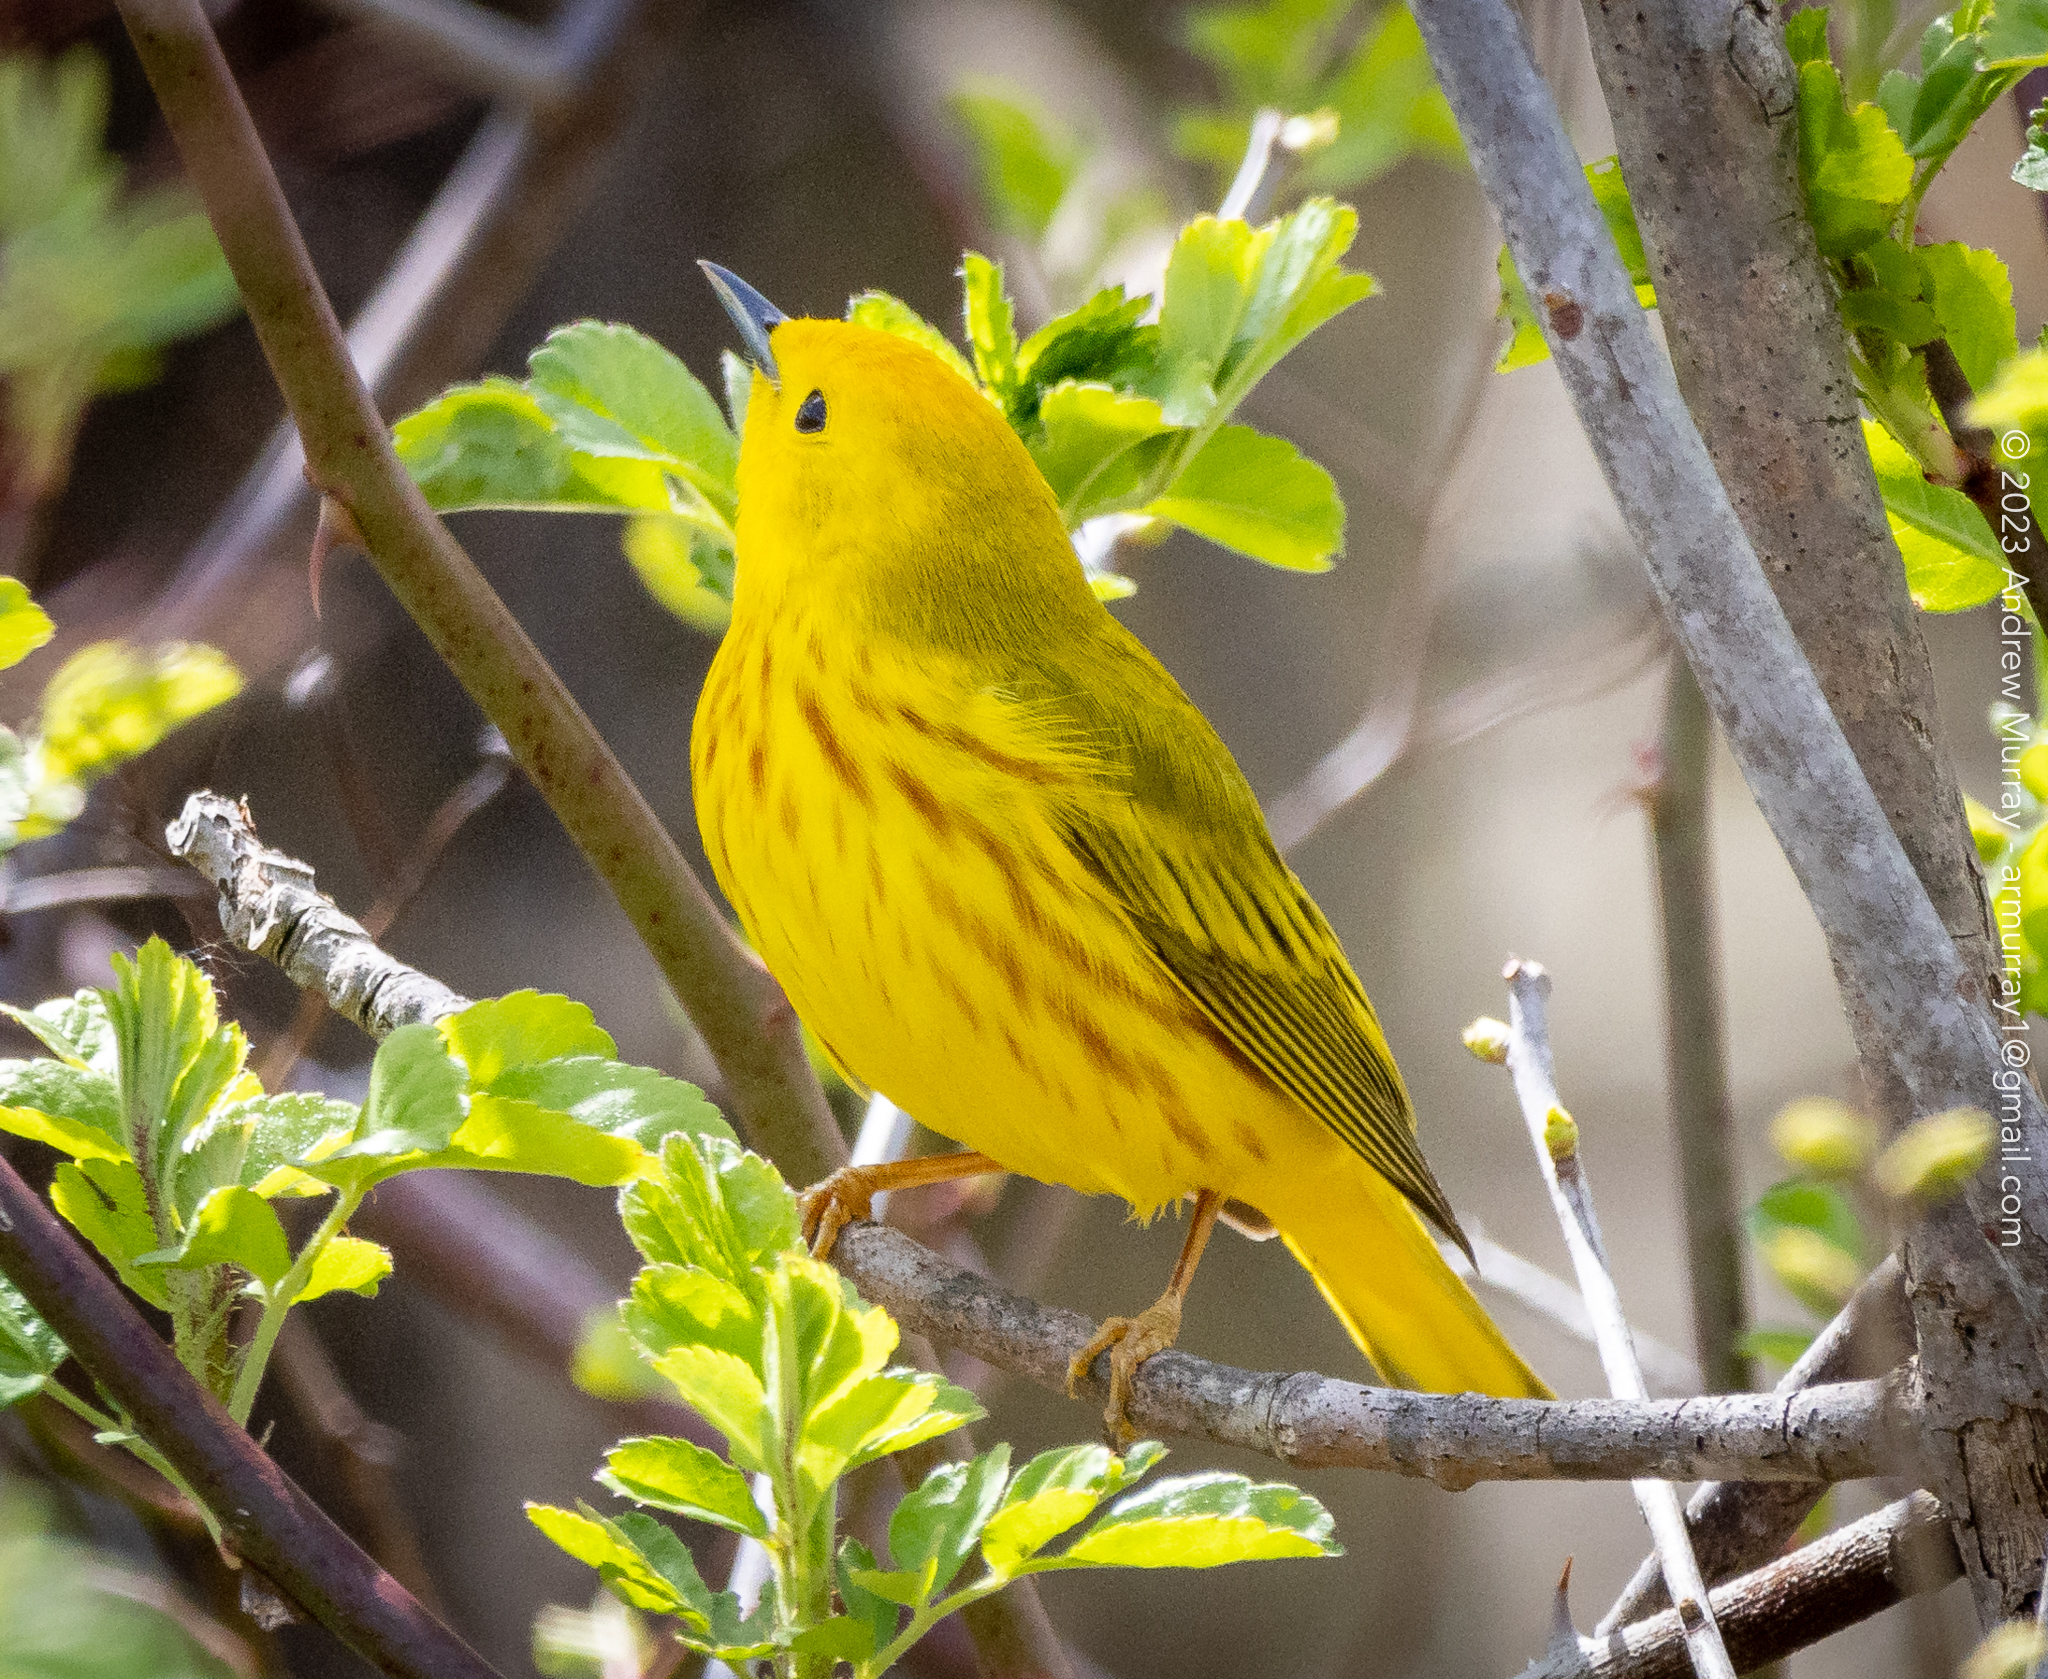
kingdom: Animalia
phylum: Chordata
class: Aves
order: Passeriformes
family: Parulidae
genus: Setophaga
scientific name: Setophaga petechia
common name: Yellow warbler
